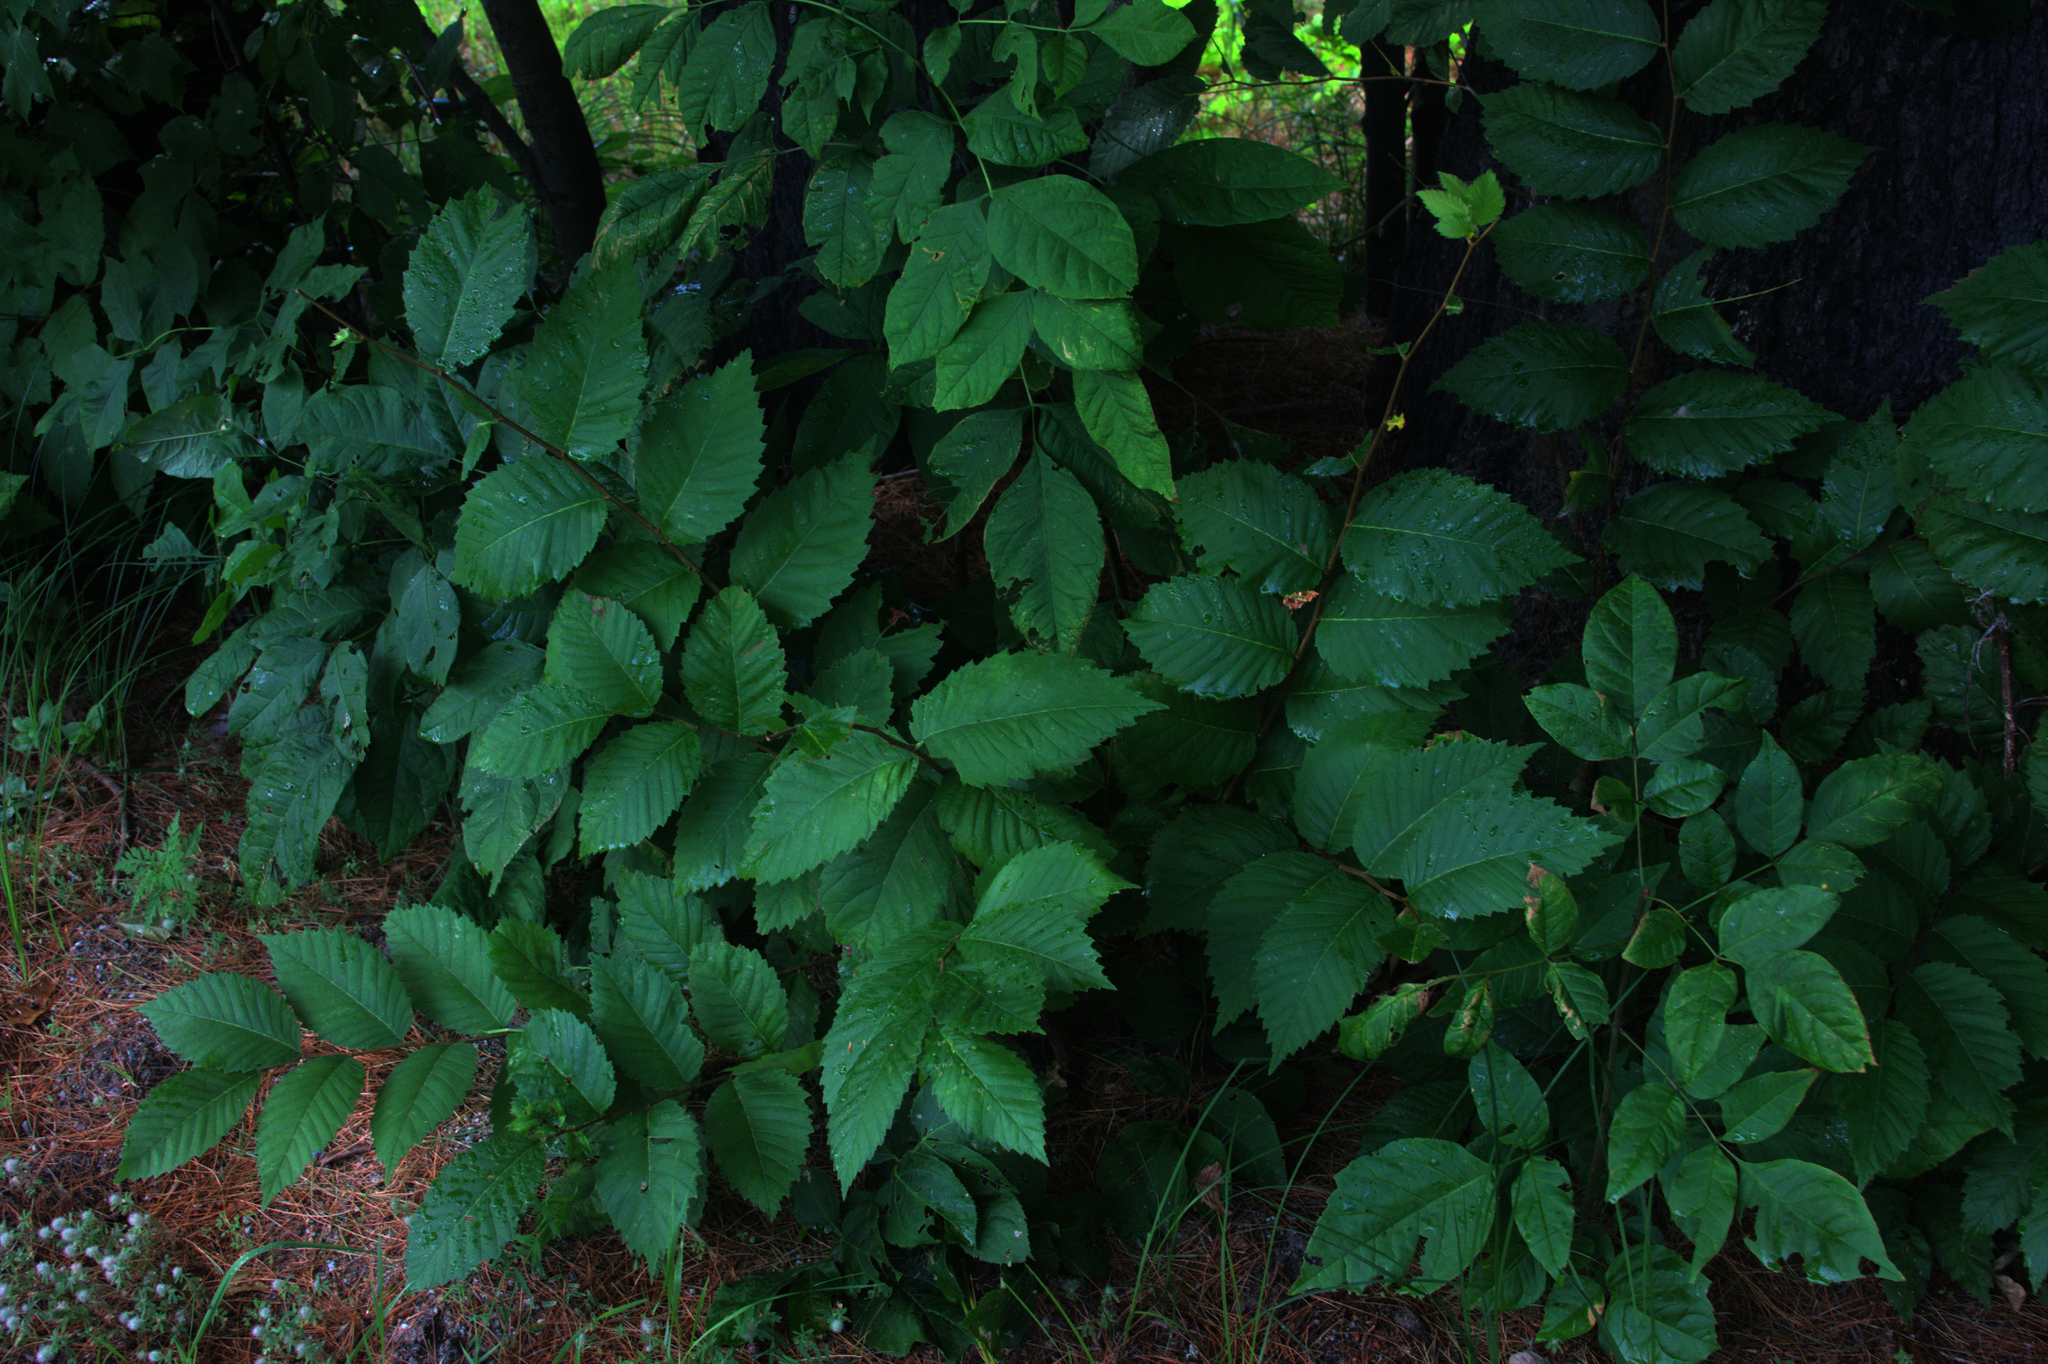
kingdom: Plantae
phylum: Tracheophyta
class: Magnoliopsida
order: Rosales
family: Ulmaceae
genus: Ulmus
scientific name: Ulmus americana
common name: American elm
